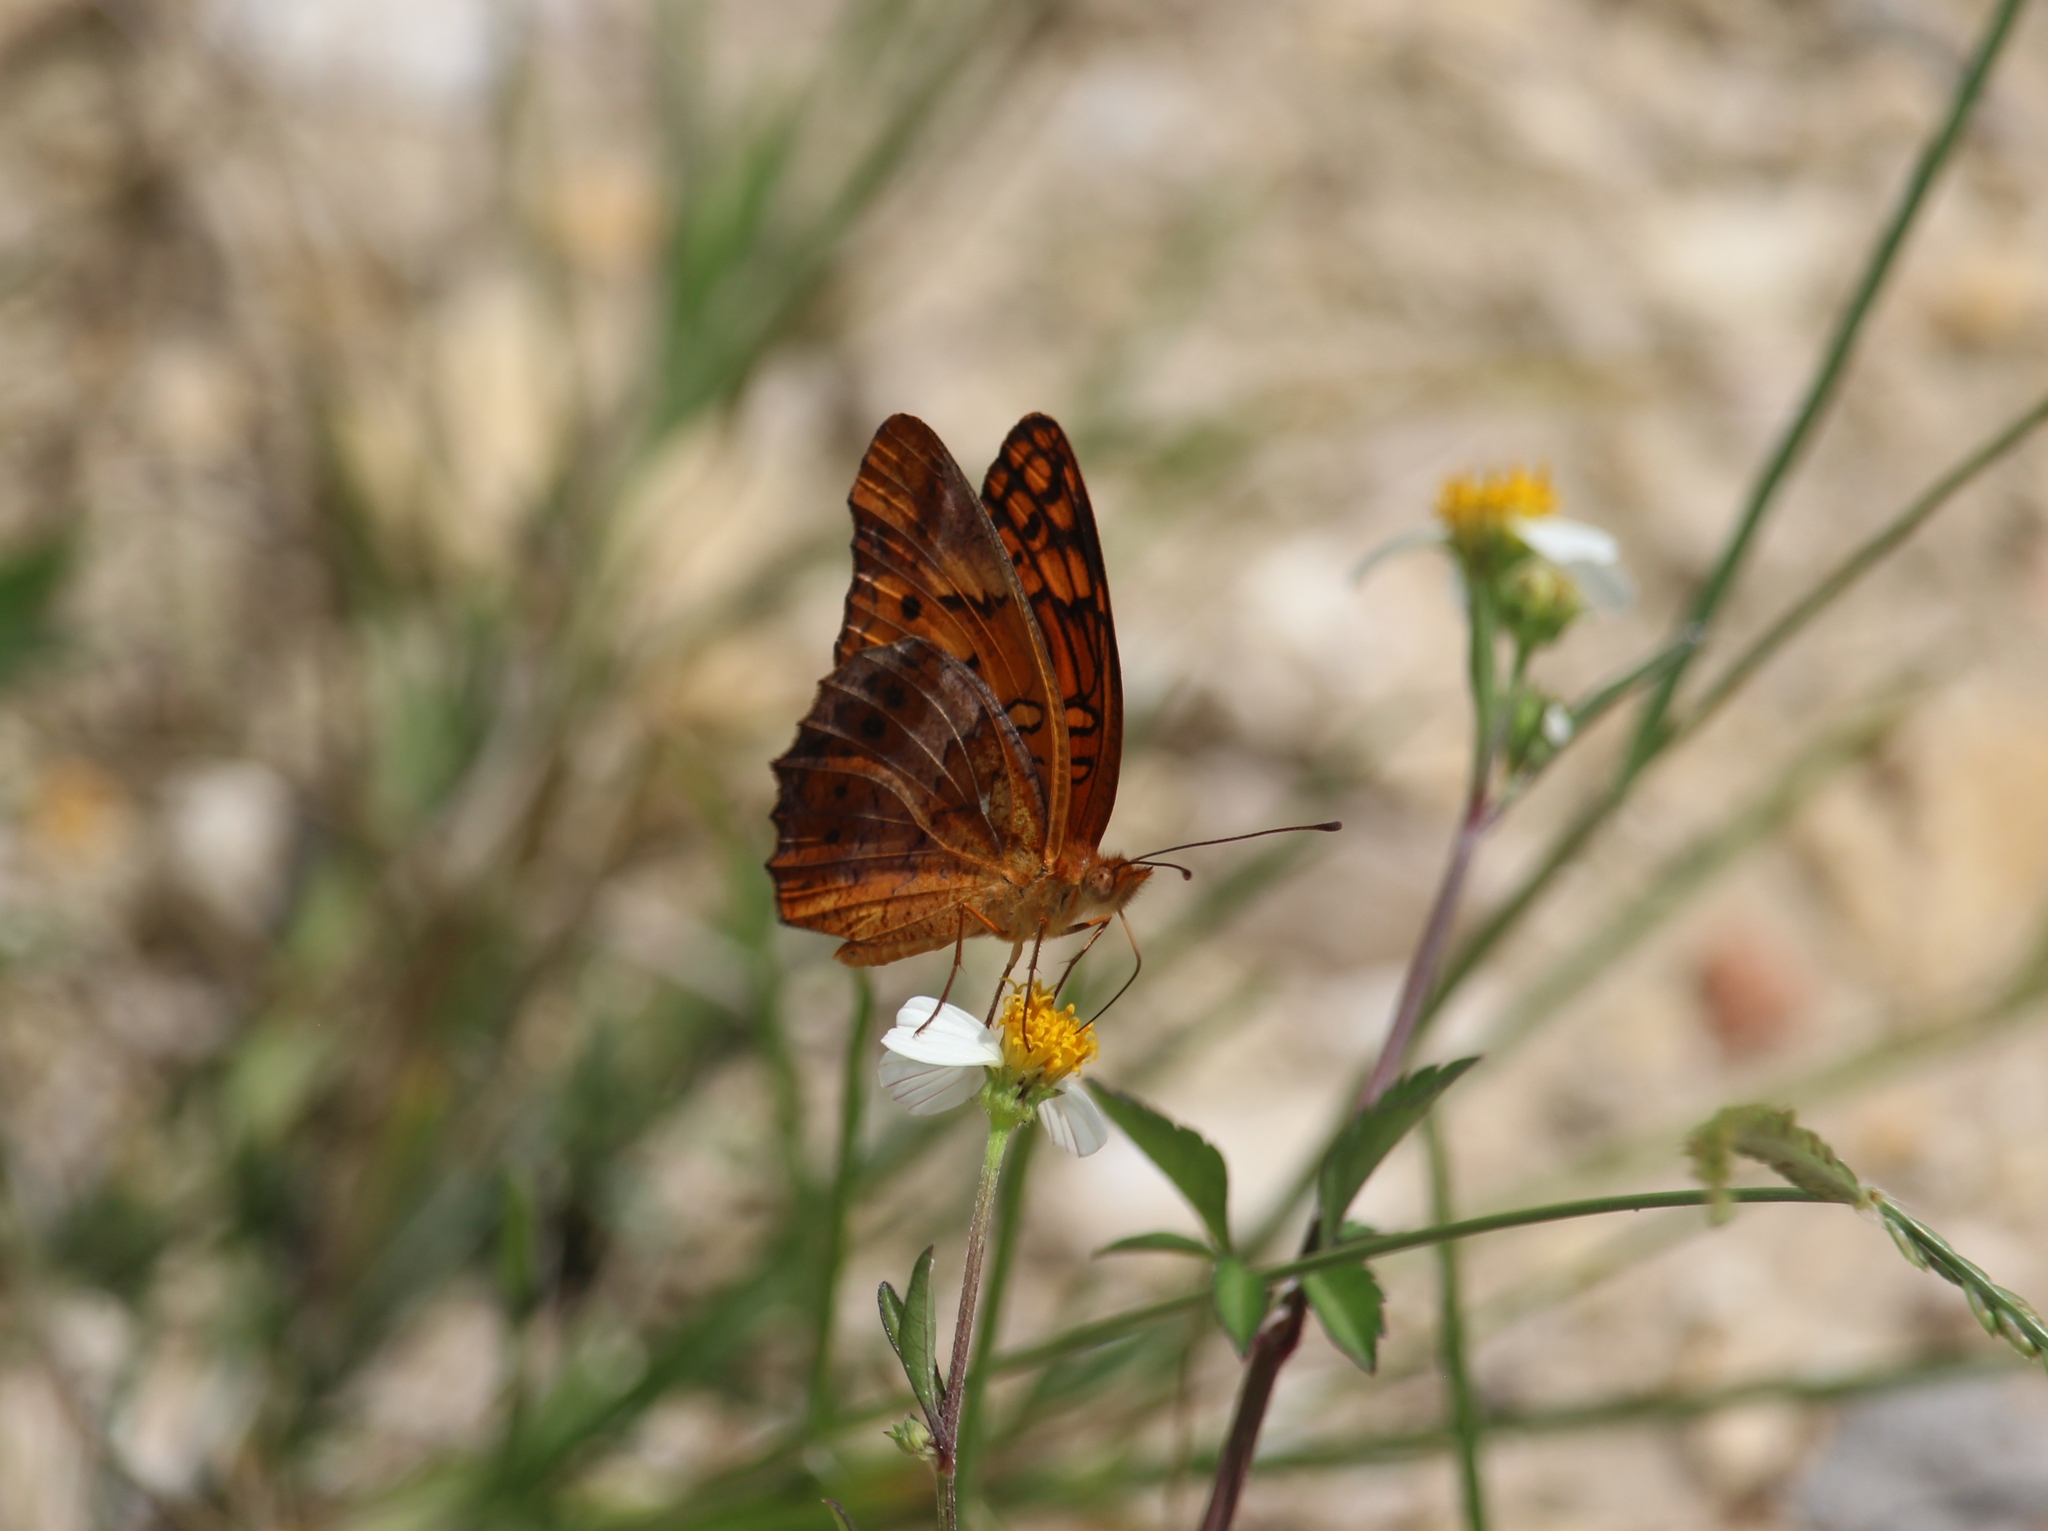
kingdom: Animalia
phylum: Arthropoda
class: Insecta
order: Lepidoptera
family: Nymphalidae
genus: Euptoieta
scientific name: Euptoieta hegesia
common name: Mexican fritillary
